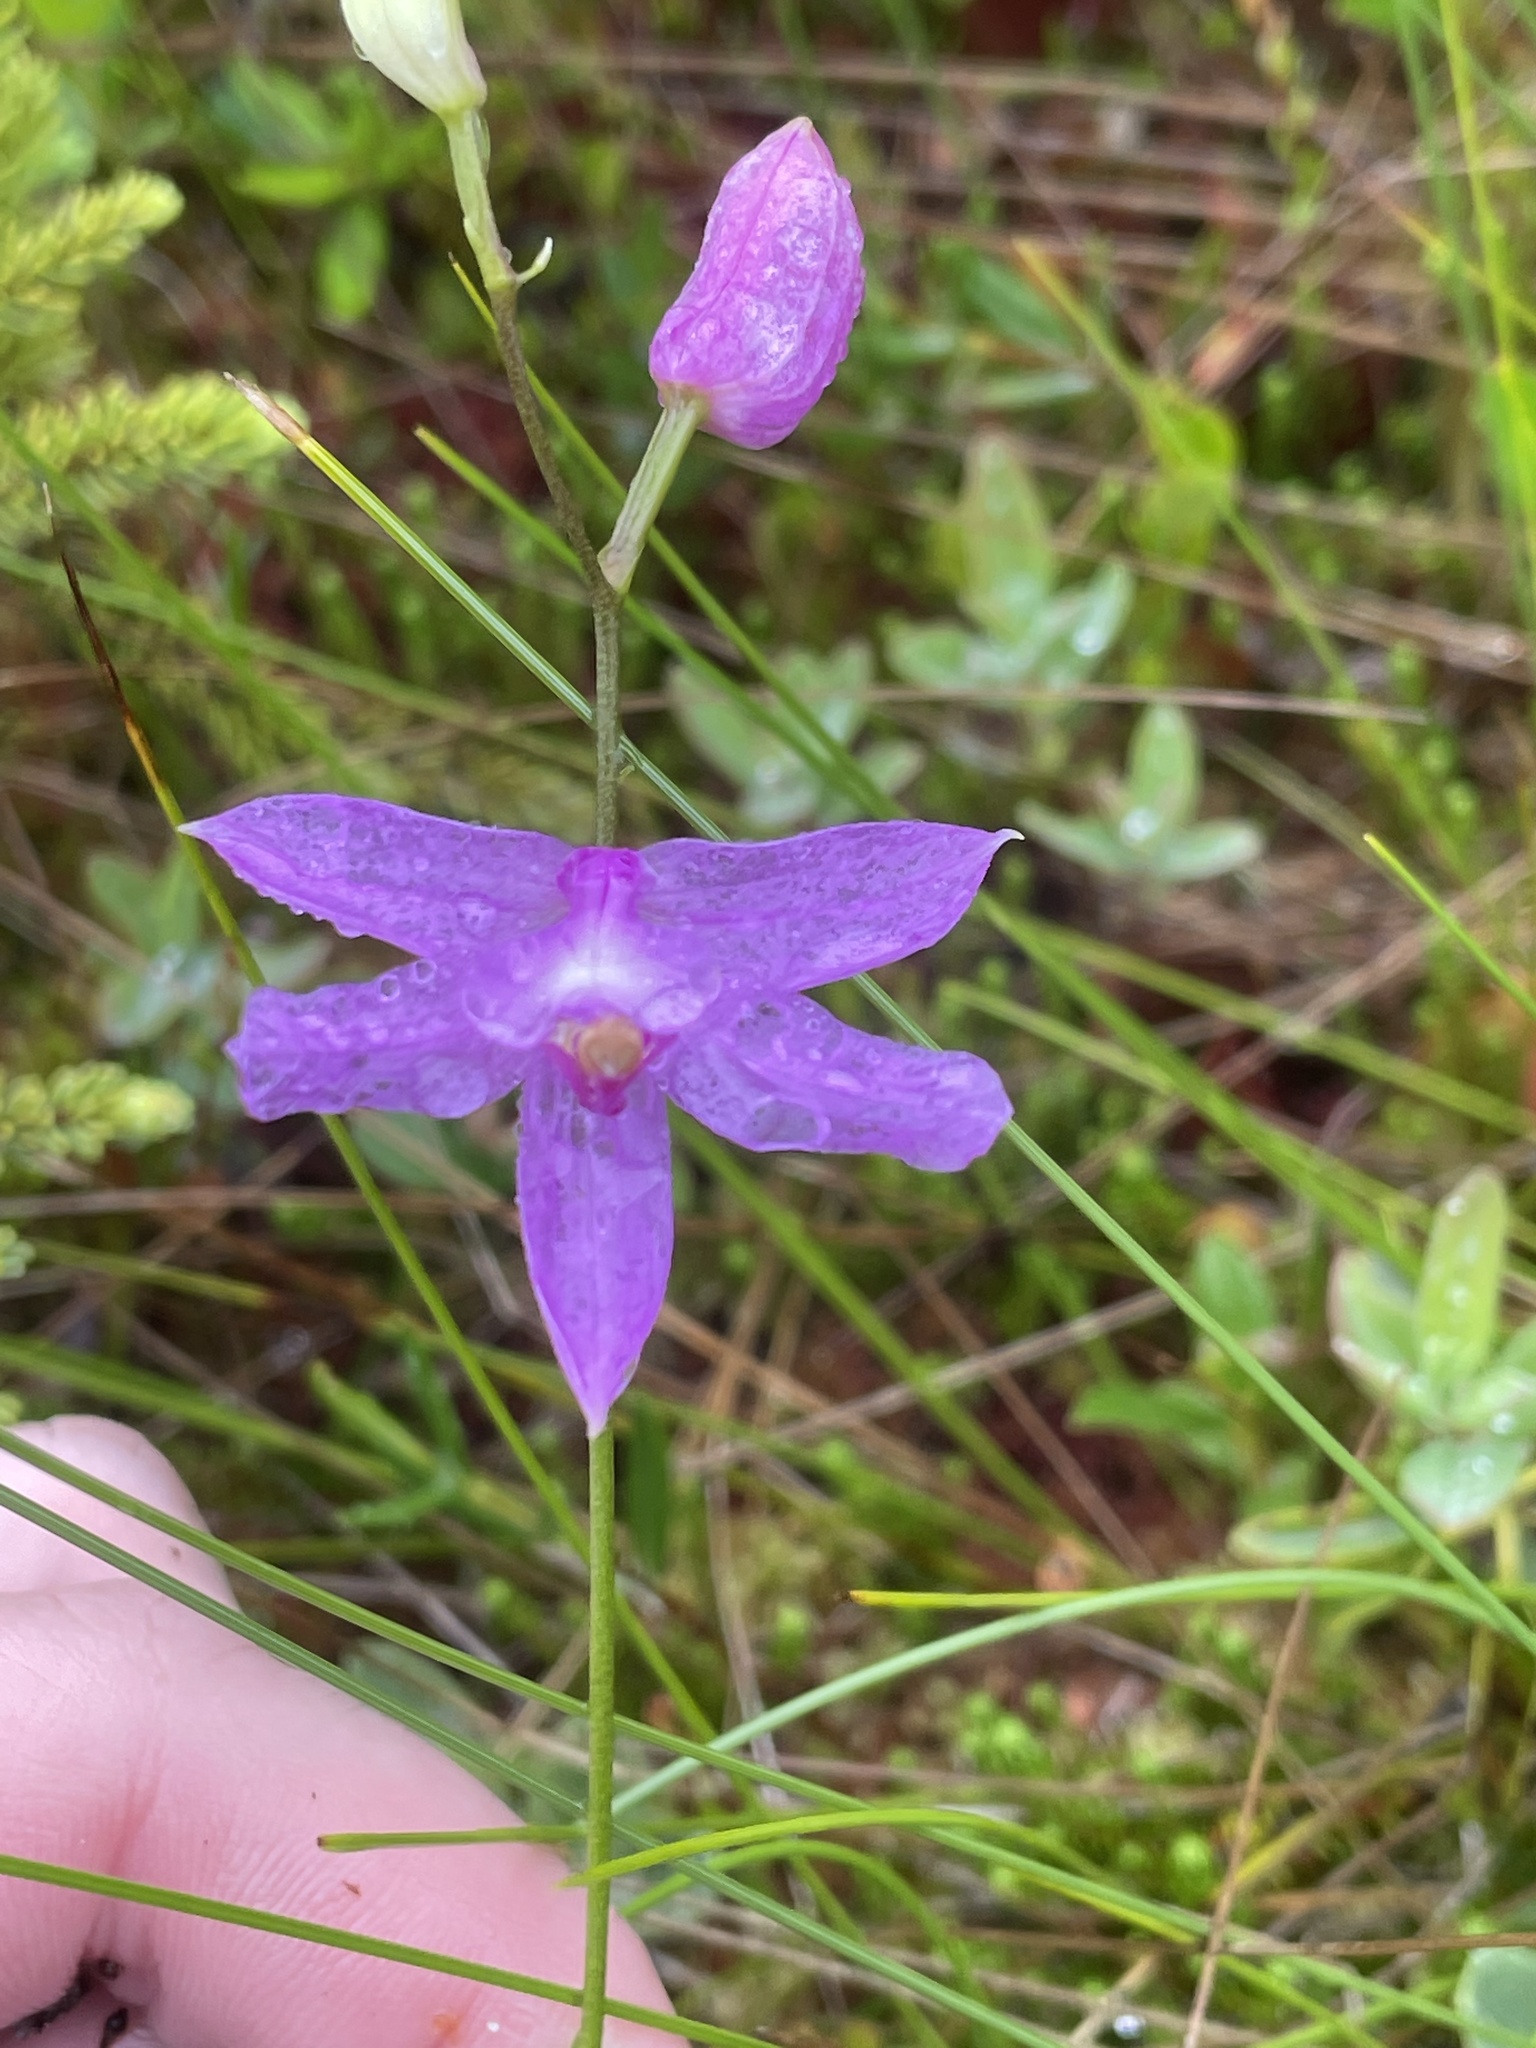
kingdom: Plantae
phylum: Tracheophyta
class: Liliopsida
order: Asparagales
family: Orchidaceae
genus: Calopogon
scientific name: Calopogon tuberosus
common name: Grass-pink
